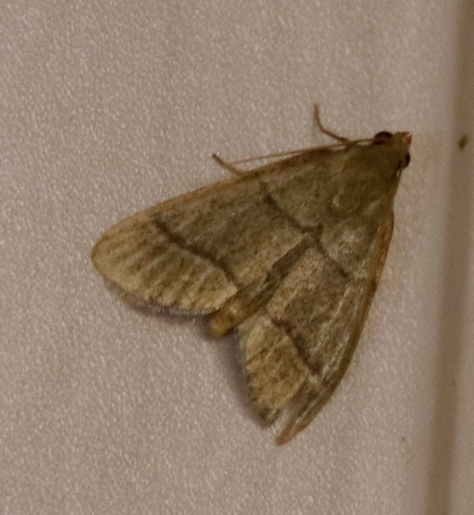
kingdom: Animalia
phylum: Arthropoda
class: Insecta
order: Lepidoptera
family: Pyralidae
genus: Hypsopygia
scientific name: Hypsopygia nostralis
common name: Southern hayworm moth
